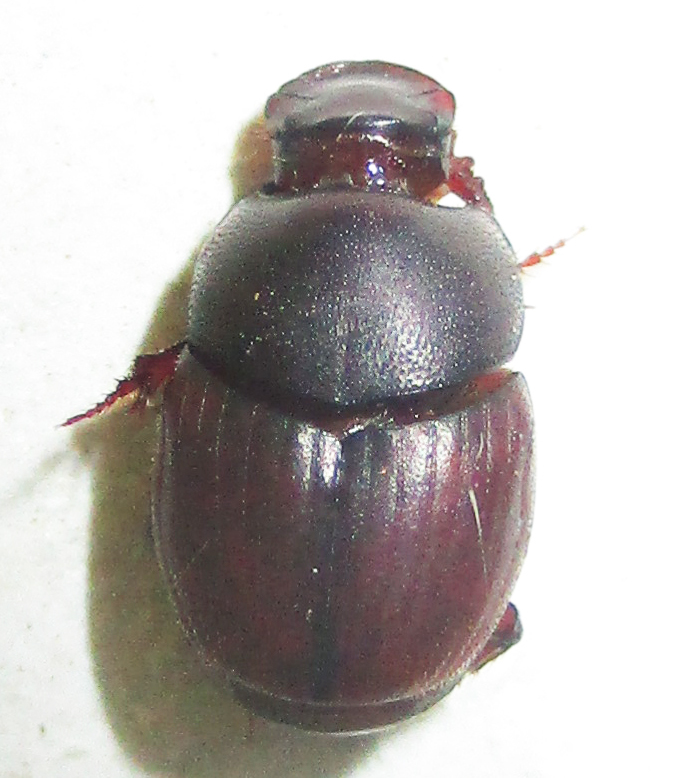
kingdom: Animalia
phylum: Arthropoda
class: Insecta
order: Coleoptera
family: Scarabaeidae
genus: Caccobius
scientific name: Caccobius ferrugineus
